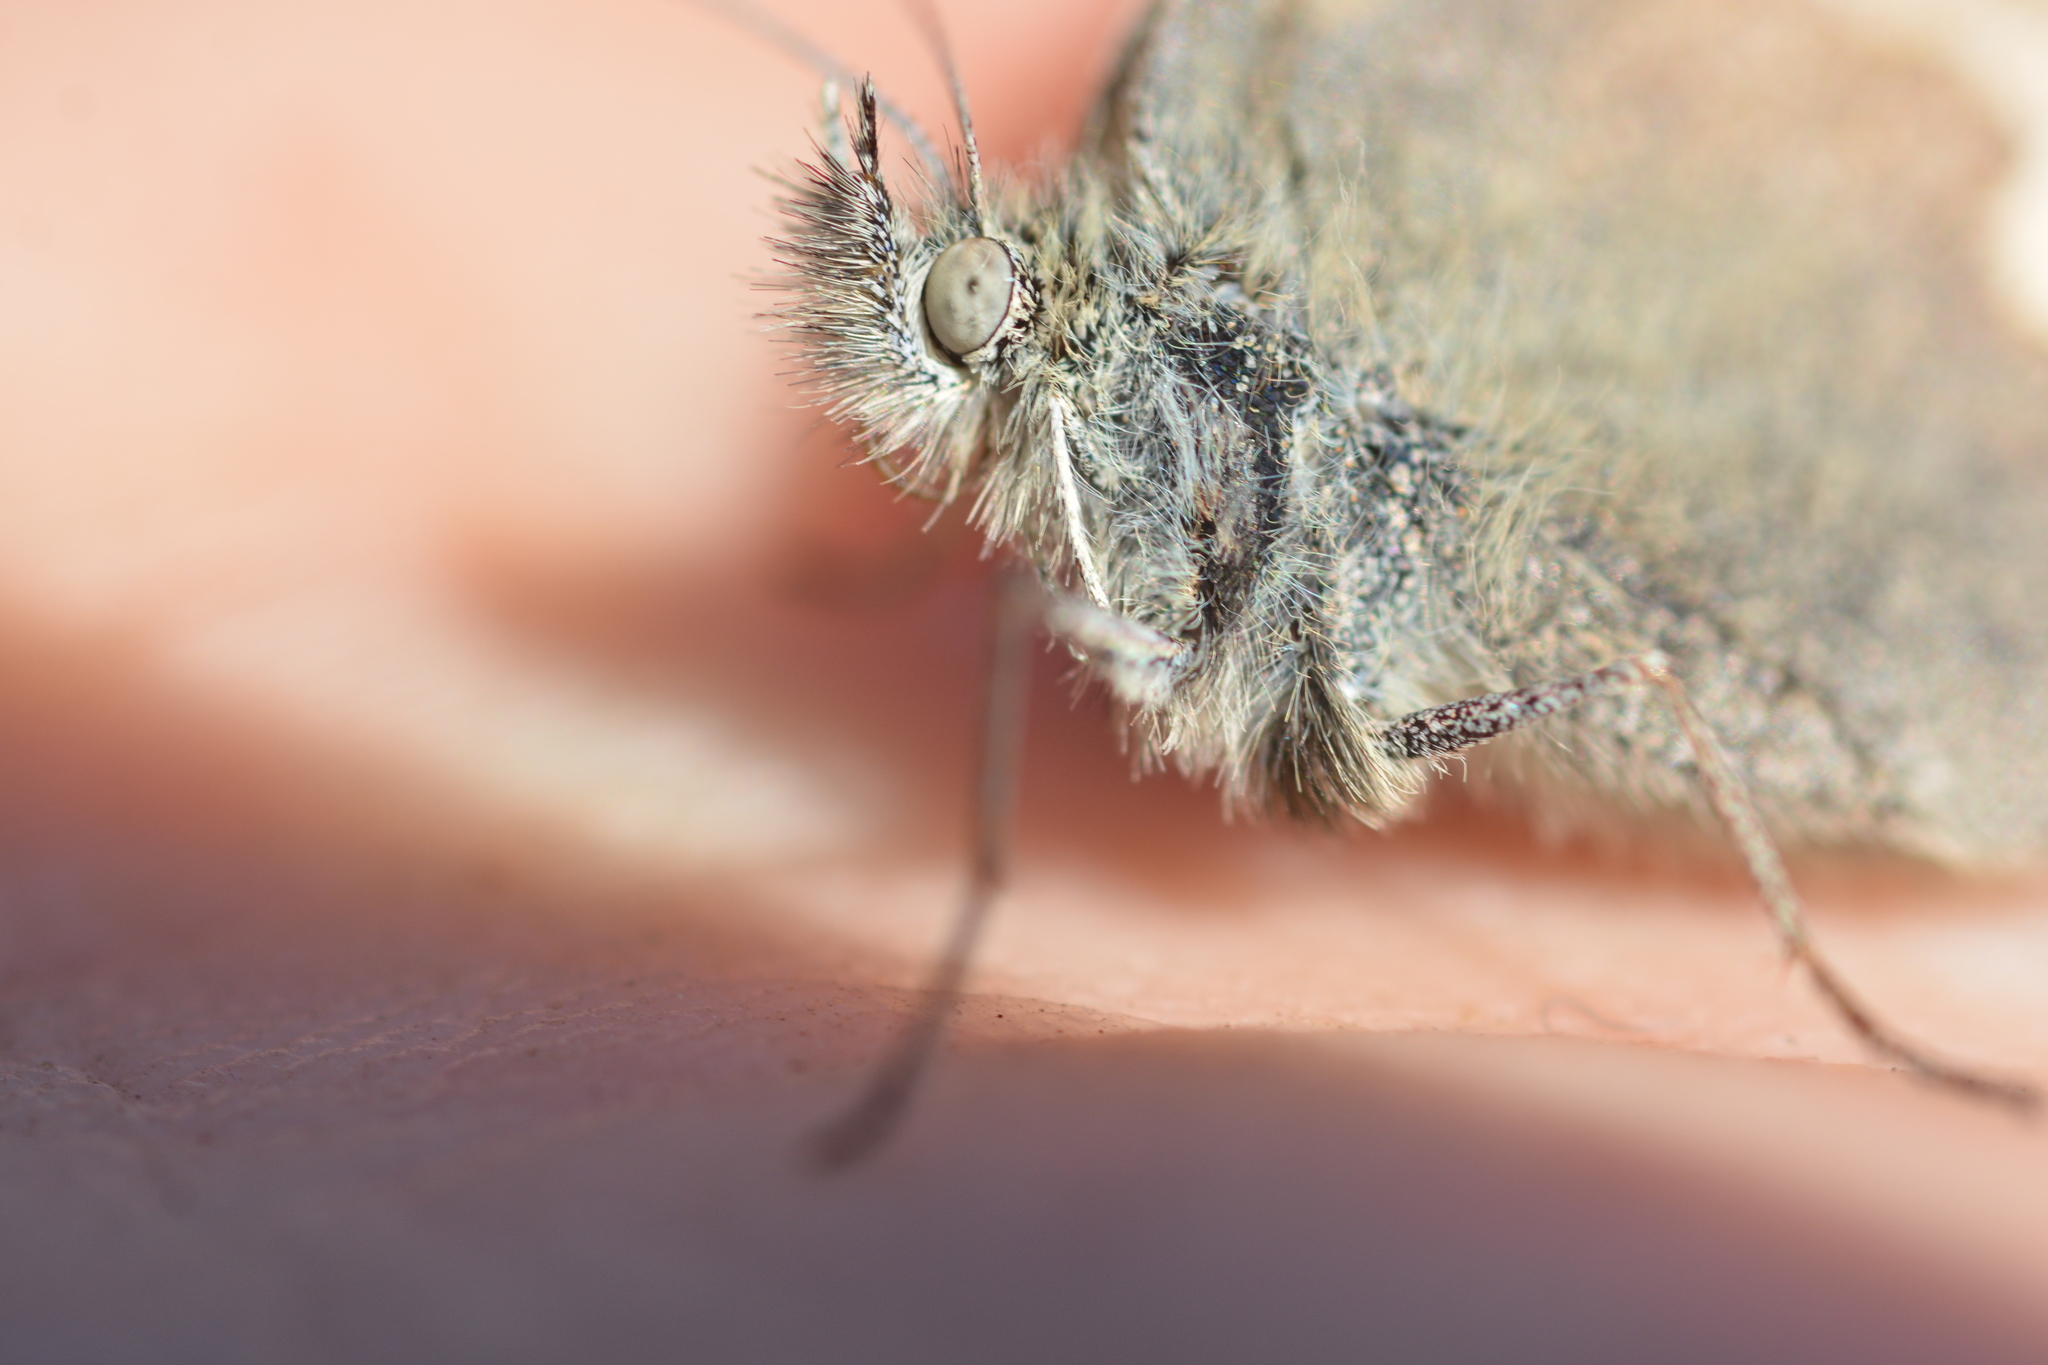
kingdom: Animalia
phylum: Arthropoda
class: Insecta
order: Lepidoptera
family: Nymphalidae
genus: Coenonympha
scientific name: Coenonympha california
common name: Common ringlet
